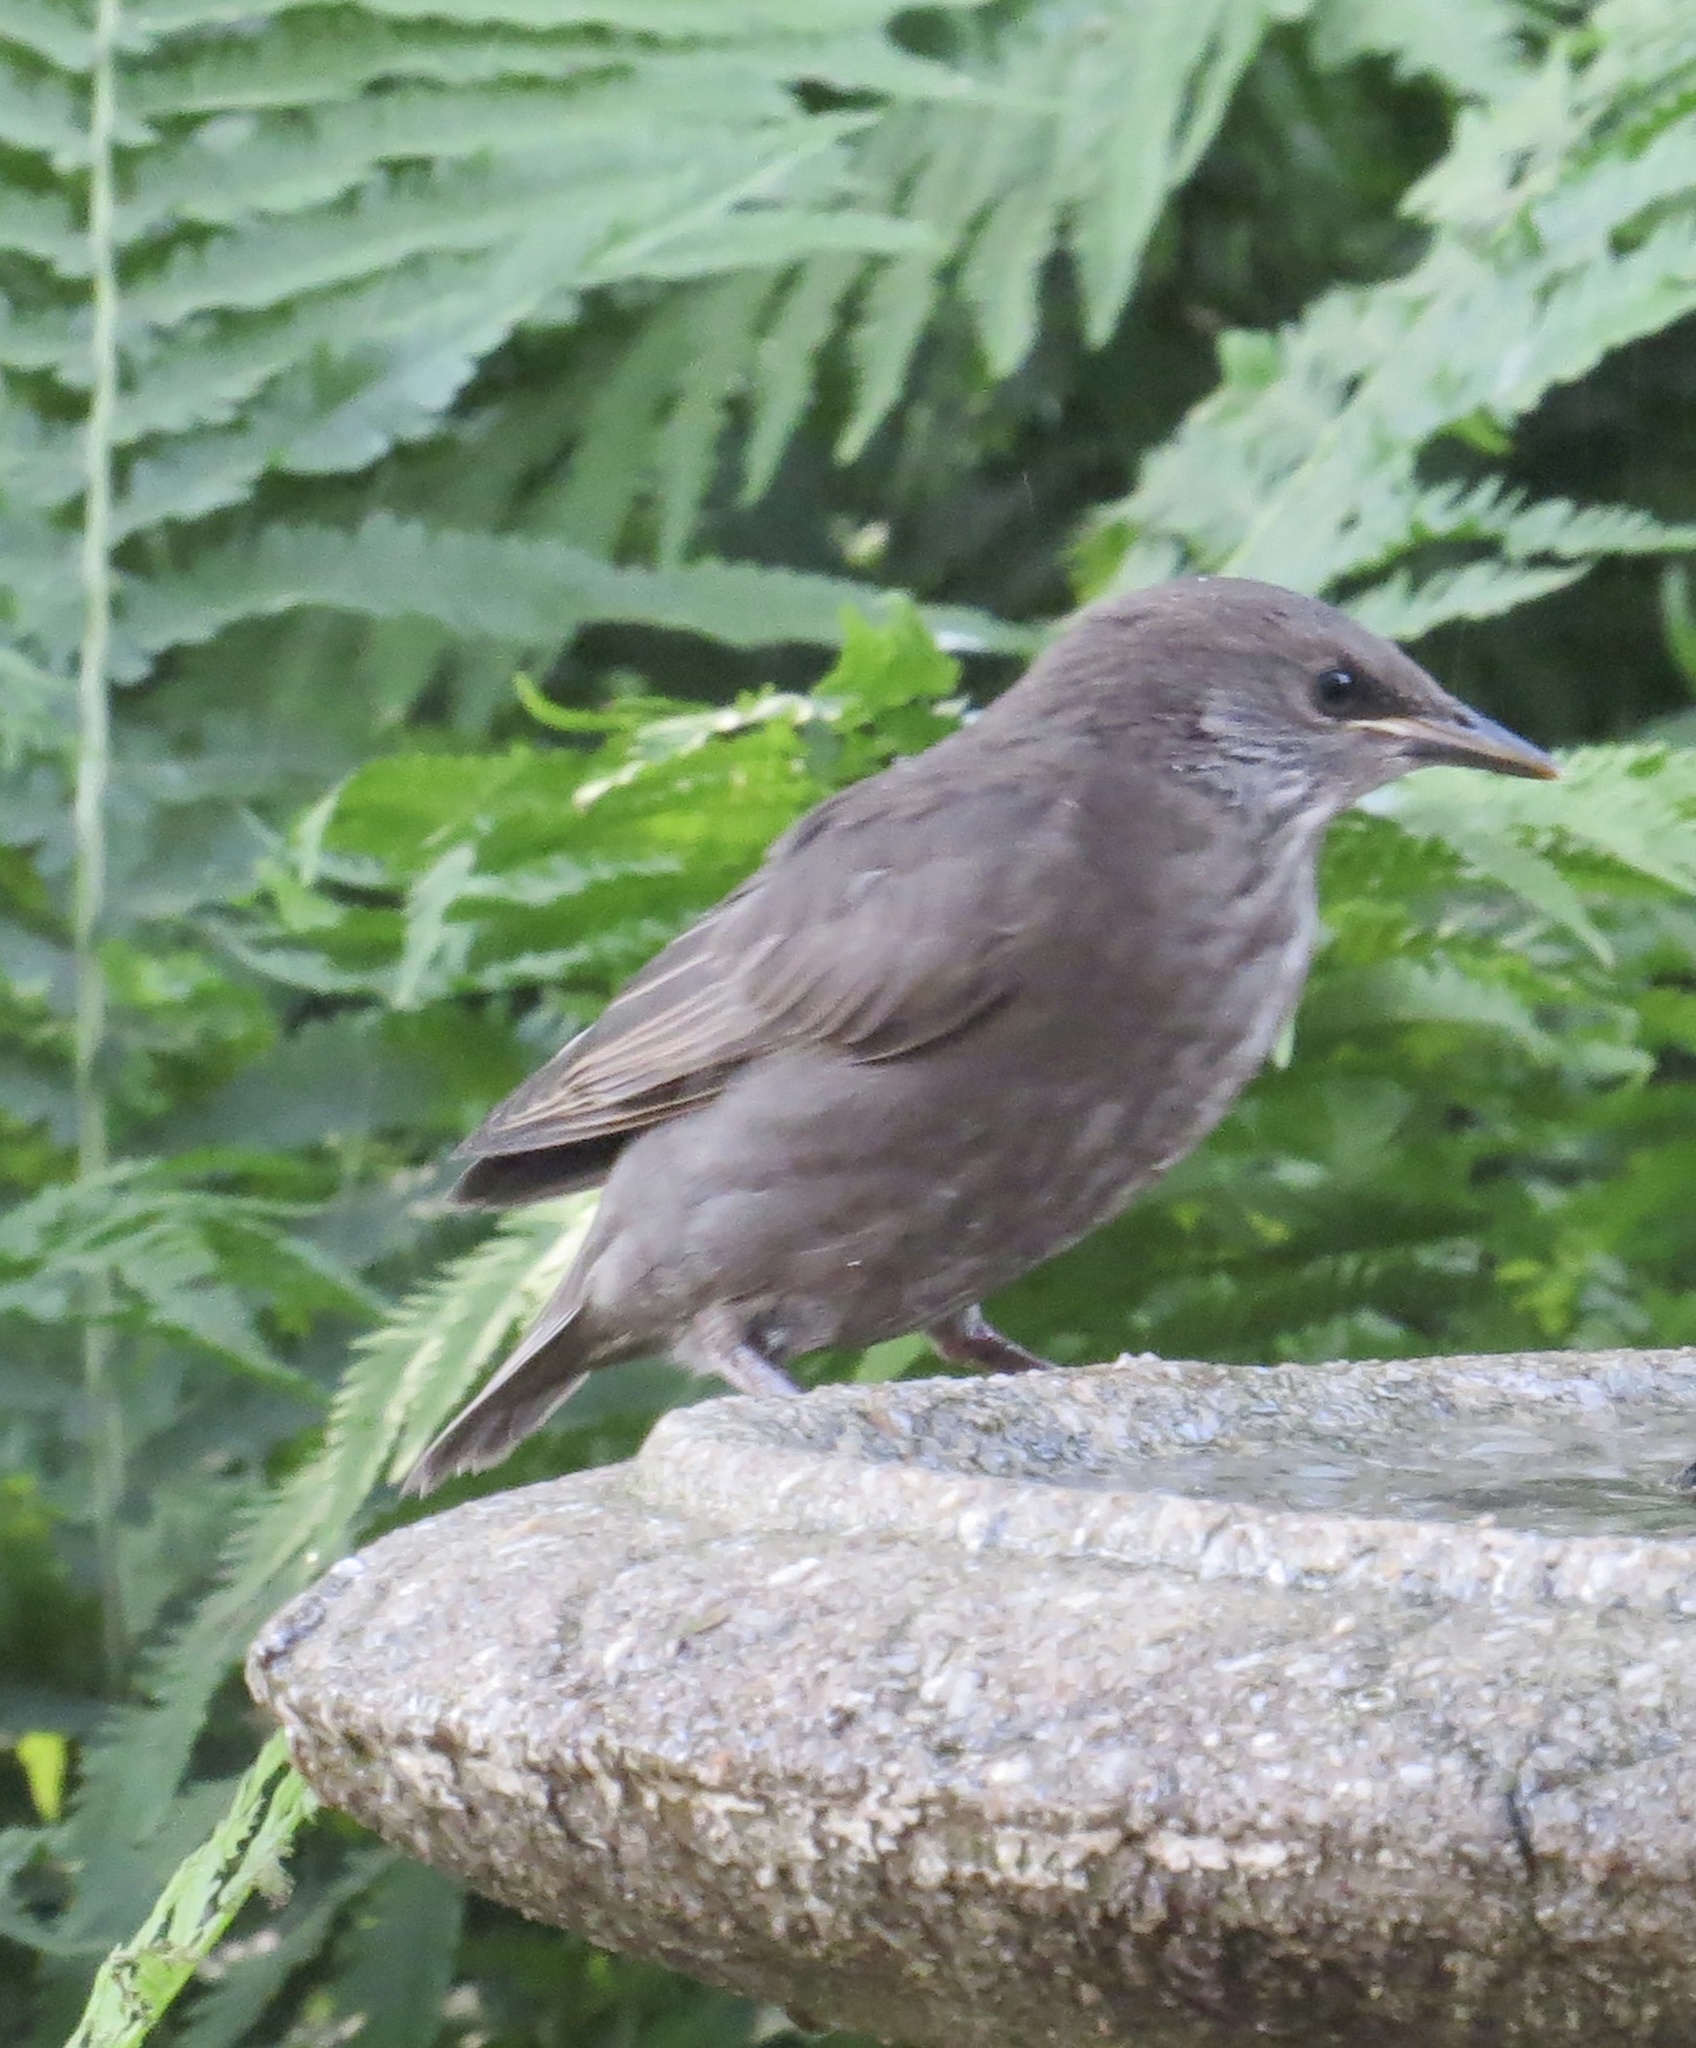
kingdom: Animalia
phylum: Chordata
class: Aves
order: Passeriformes
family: Sturnidae
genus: Sturnus
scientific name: Sturnus vulgaris
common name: Common starling
